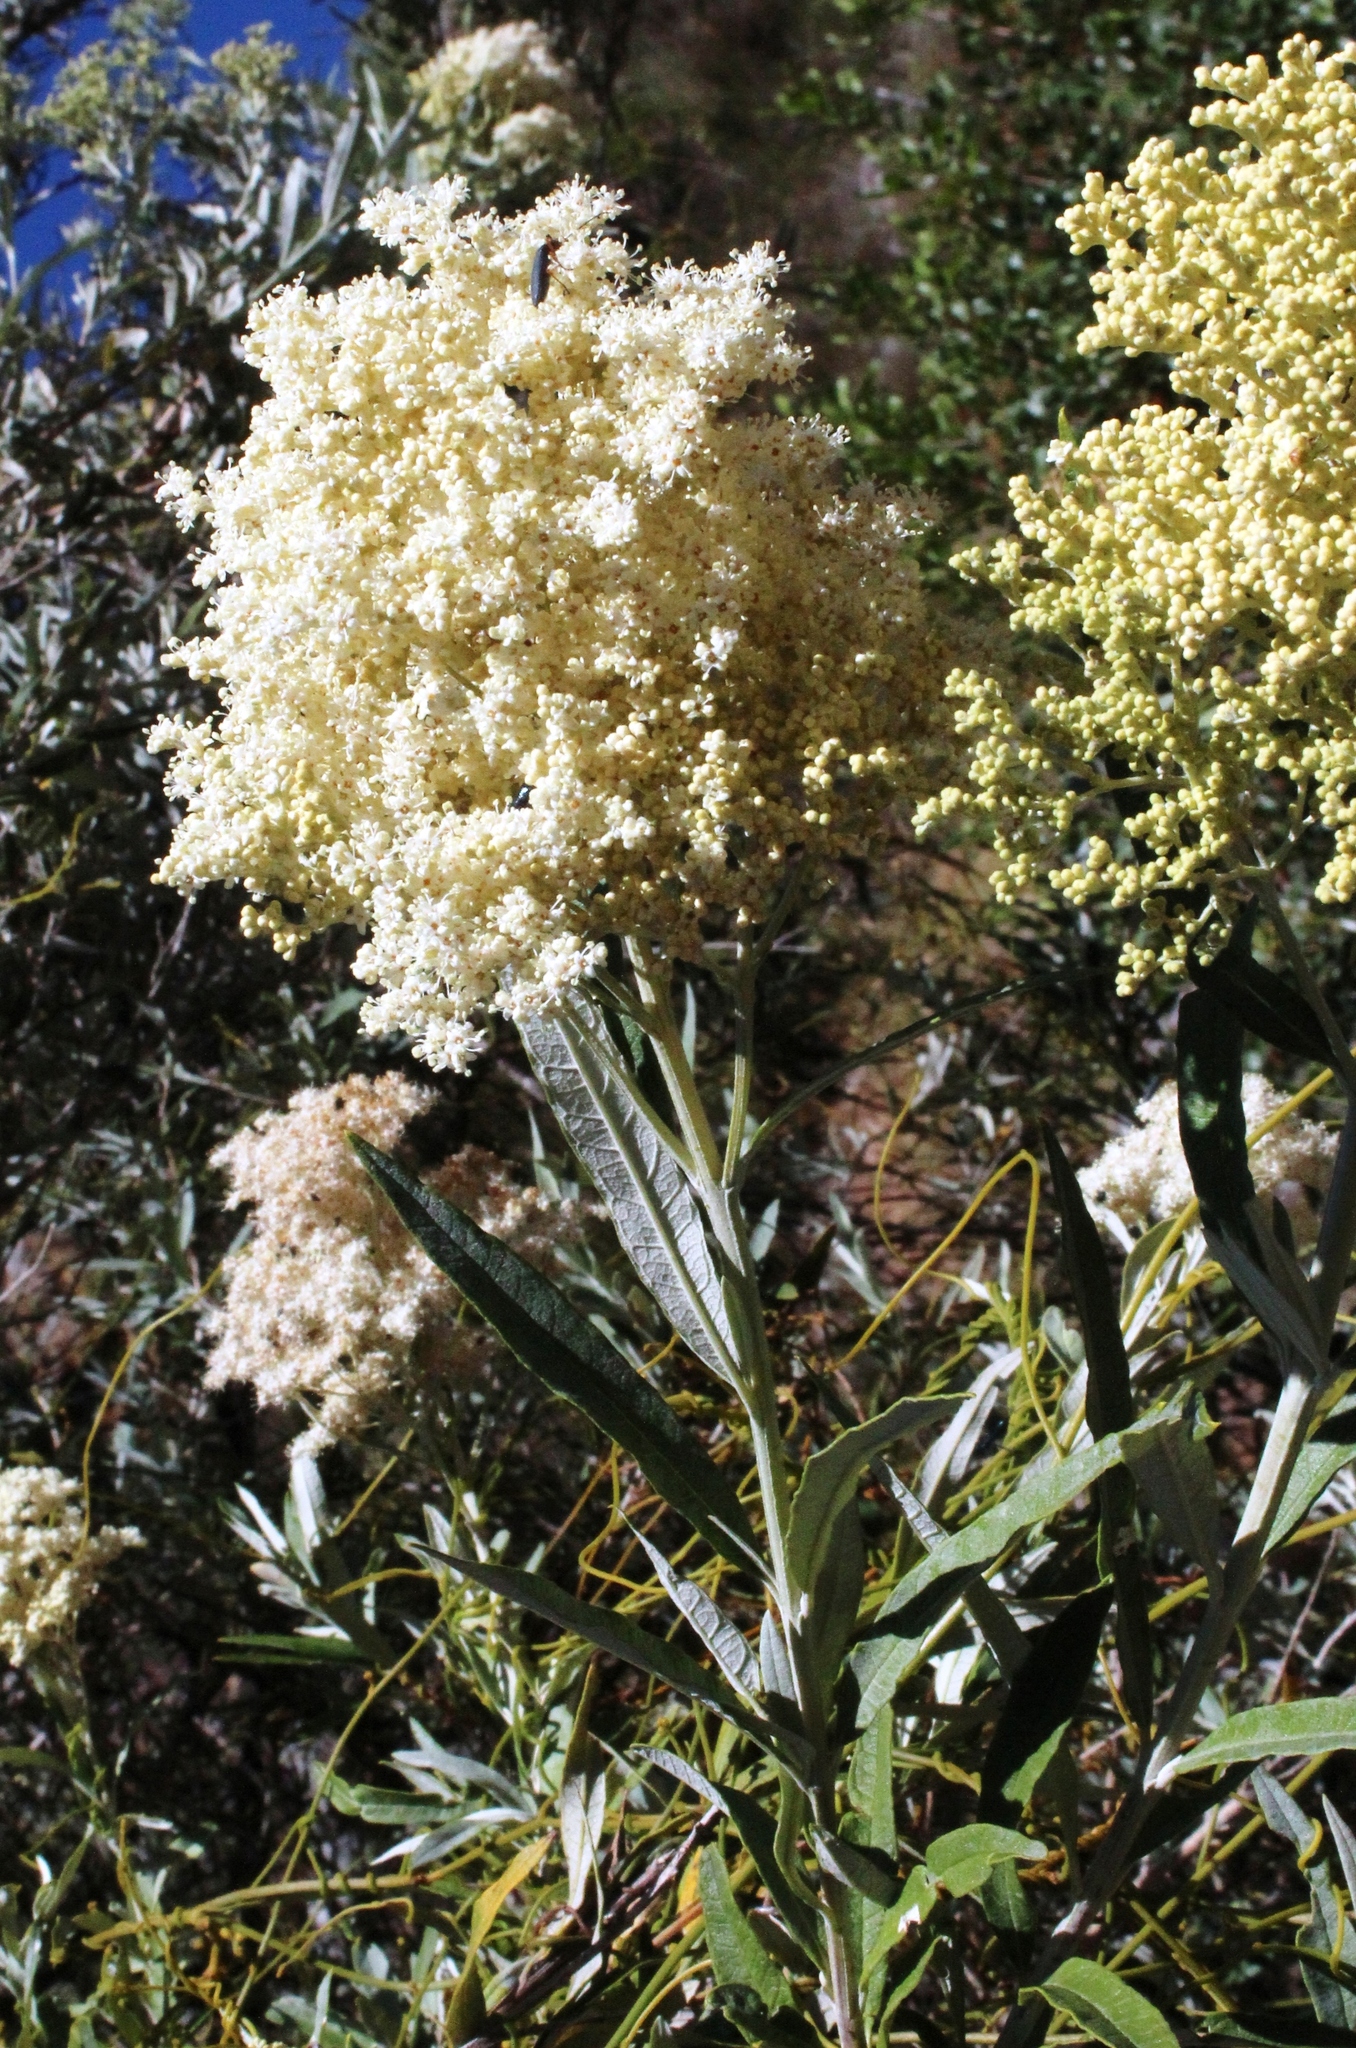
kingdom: Plantae
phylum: Tracheophyta
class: Magnoliopsida
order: Lamiales
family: Scrophulariaceae
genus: Buddleja
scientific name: Buddleja saligna
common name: False olive
